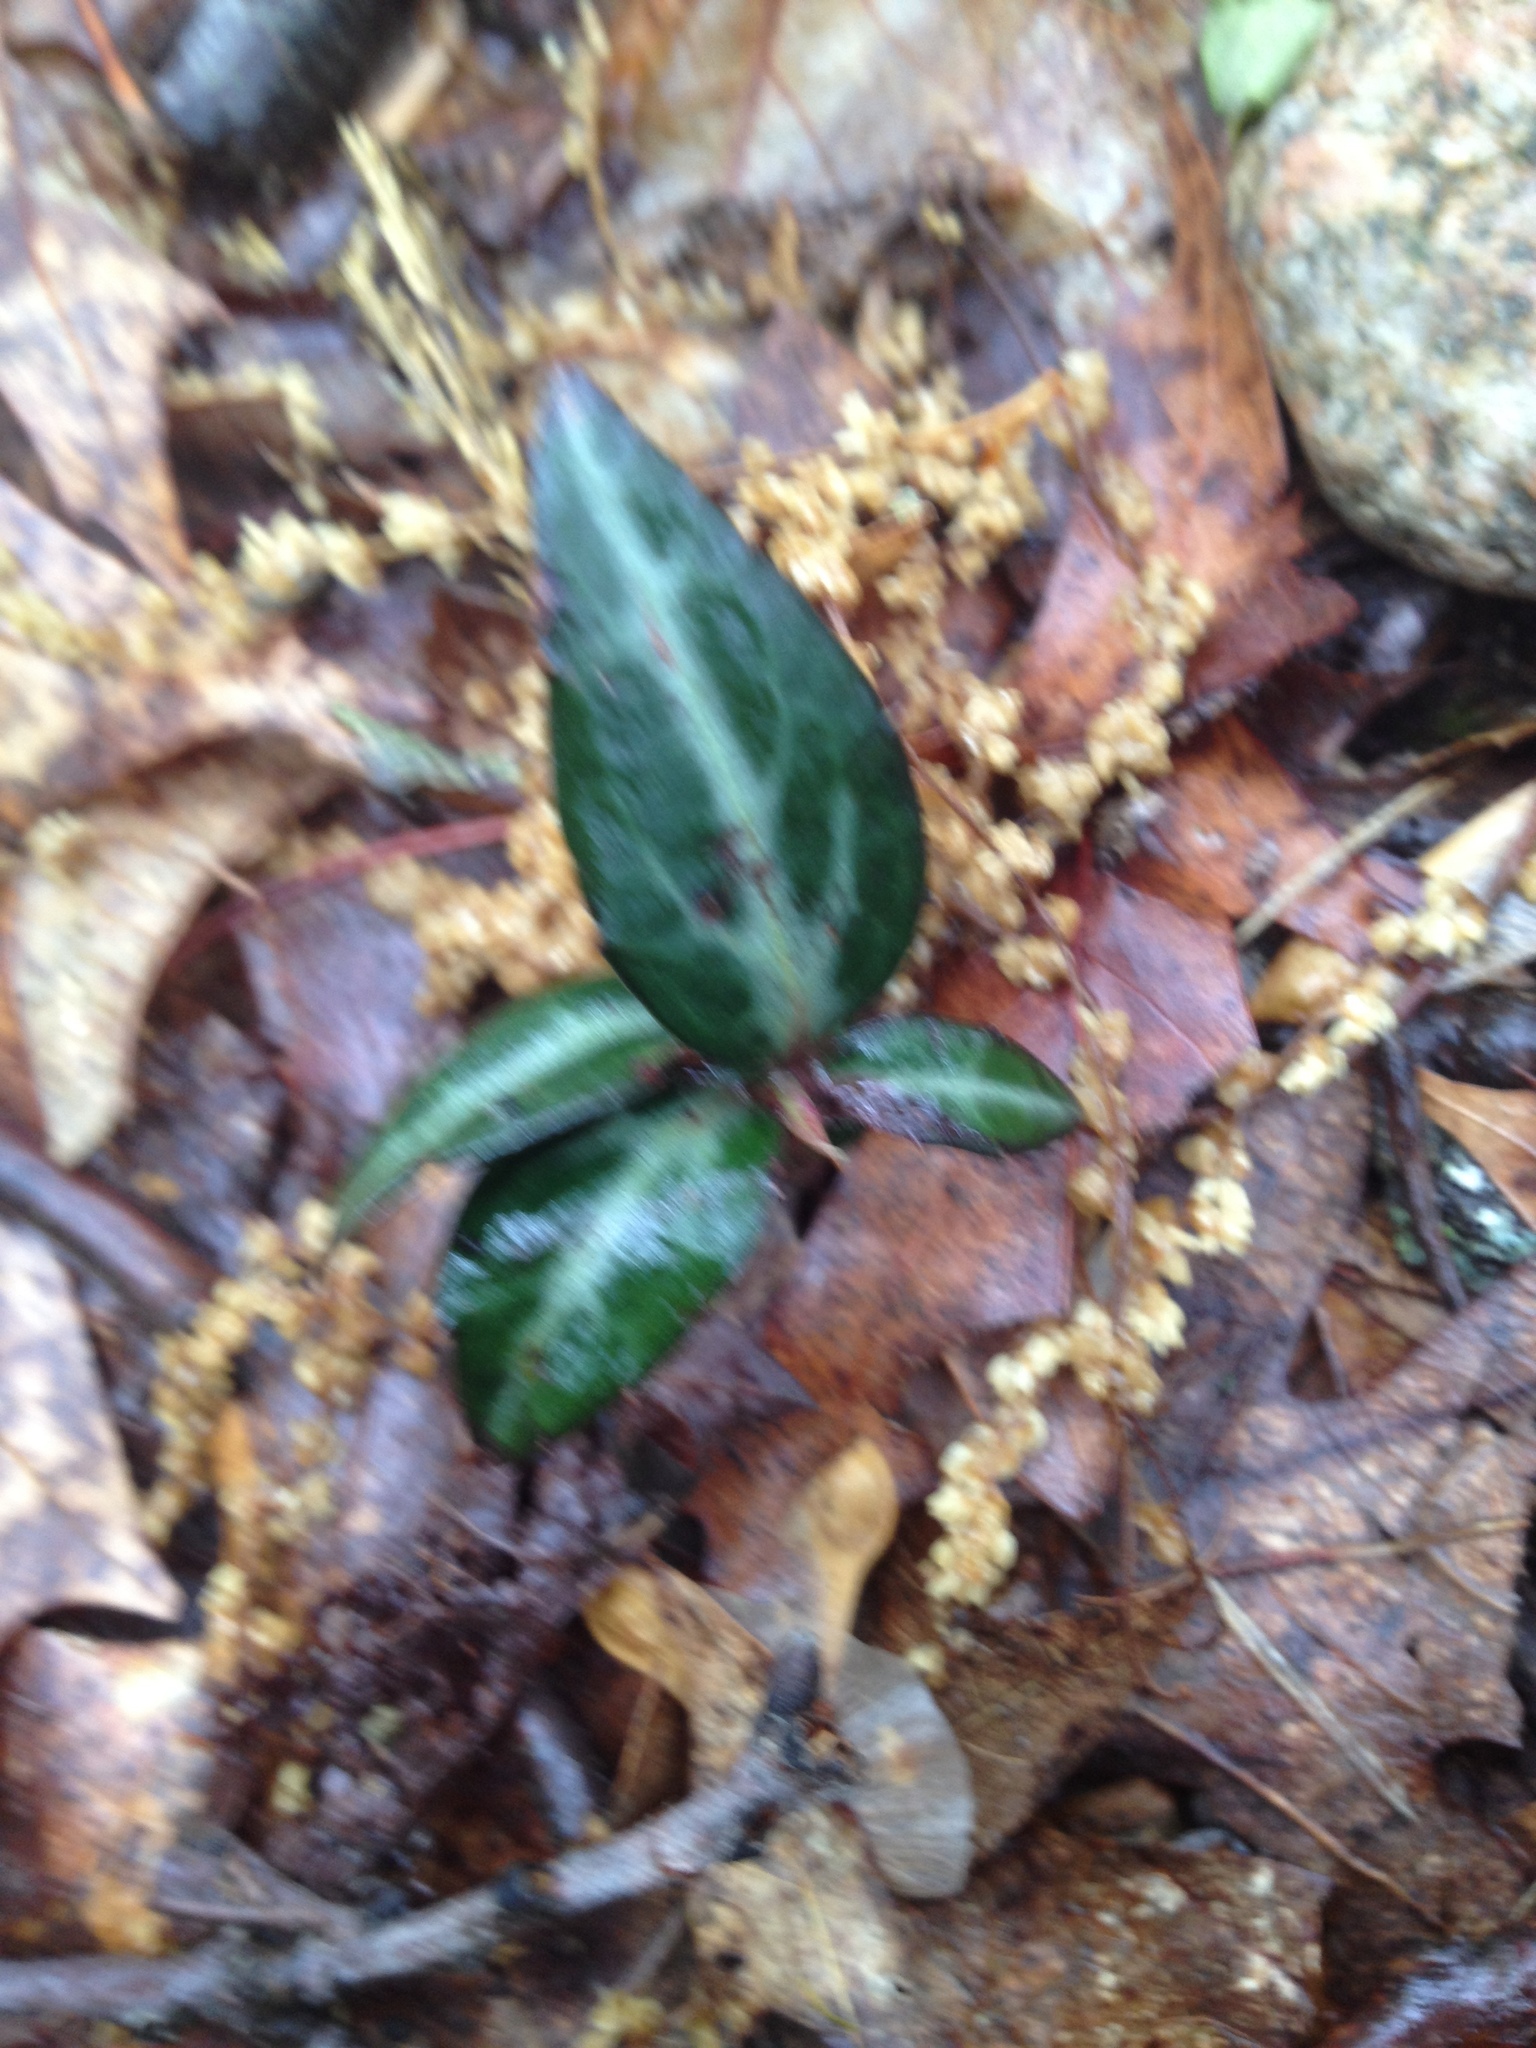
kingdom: Plantae
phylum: Tracheophyta
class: Magnoliopsida
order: Ericales
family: Ericaceae
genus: Chimaphila
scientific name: Chimaphila maculata
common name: Spotted pipsissewa
